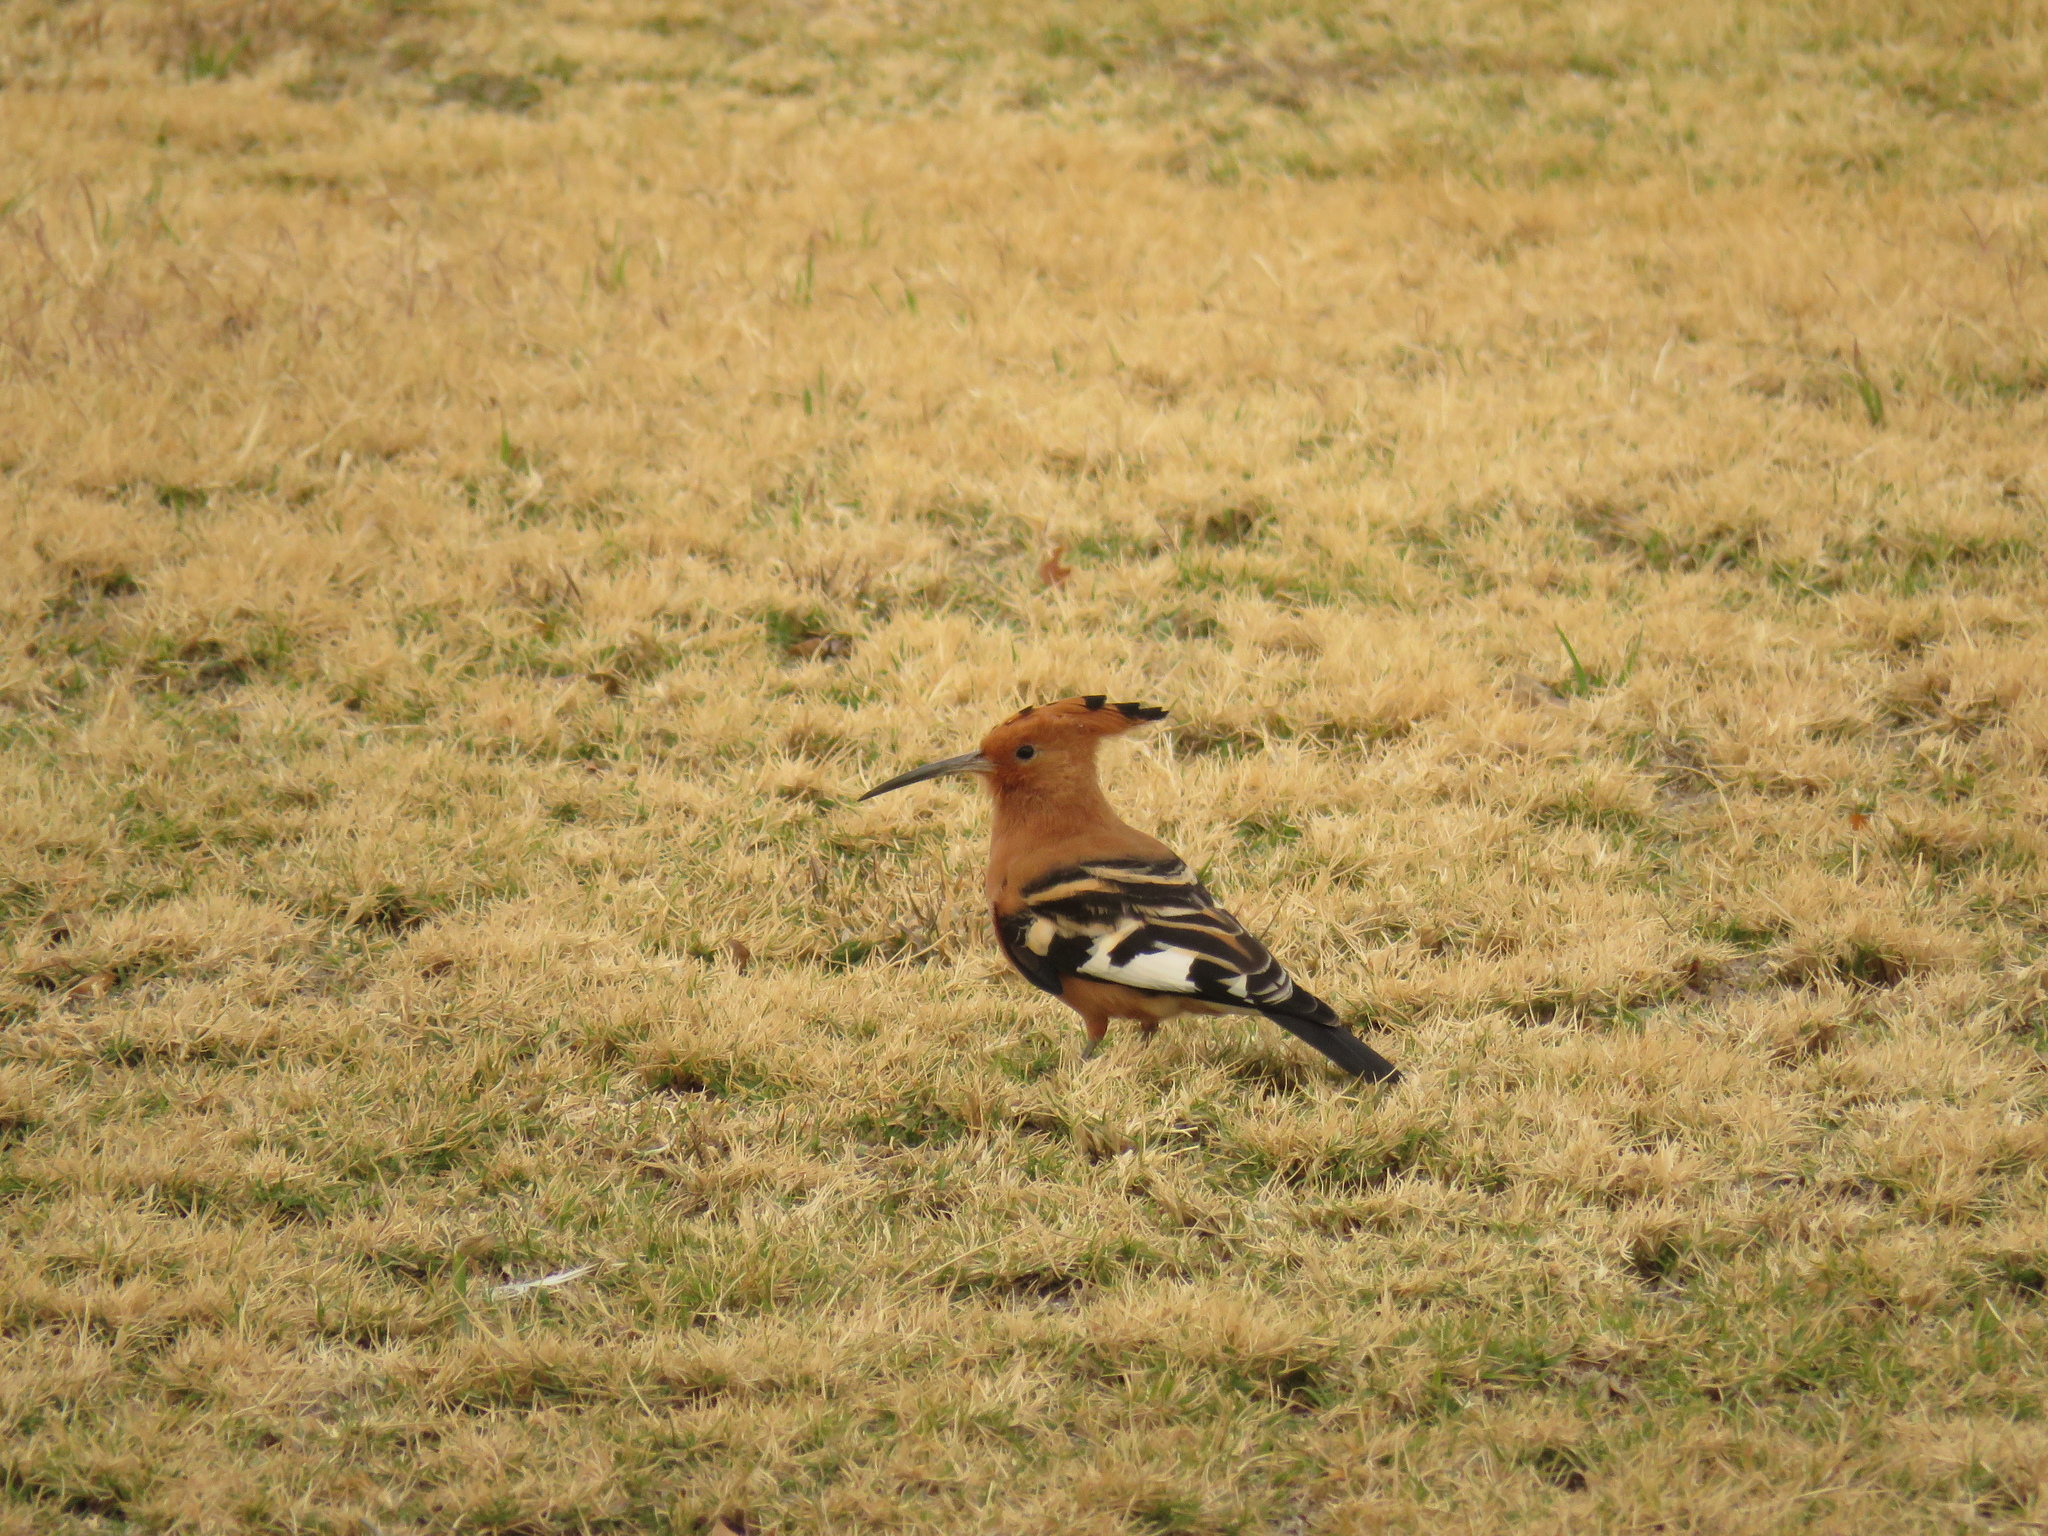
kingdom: Animalia
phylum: Chordata
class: Aves
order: Bucerotiformes
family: Upupidae
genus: Upupa
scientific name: Upupa africana
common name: African hoopoe
